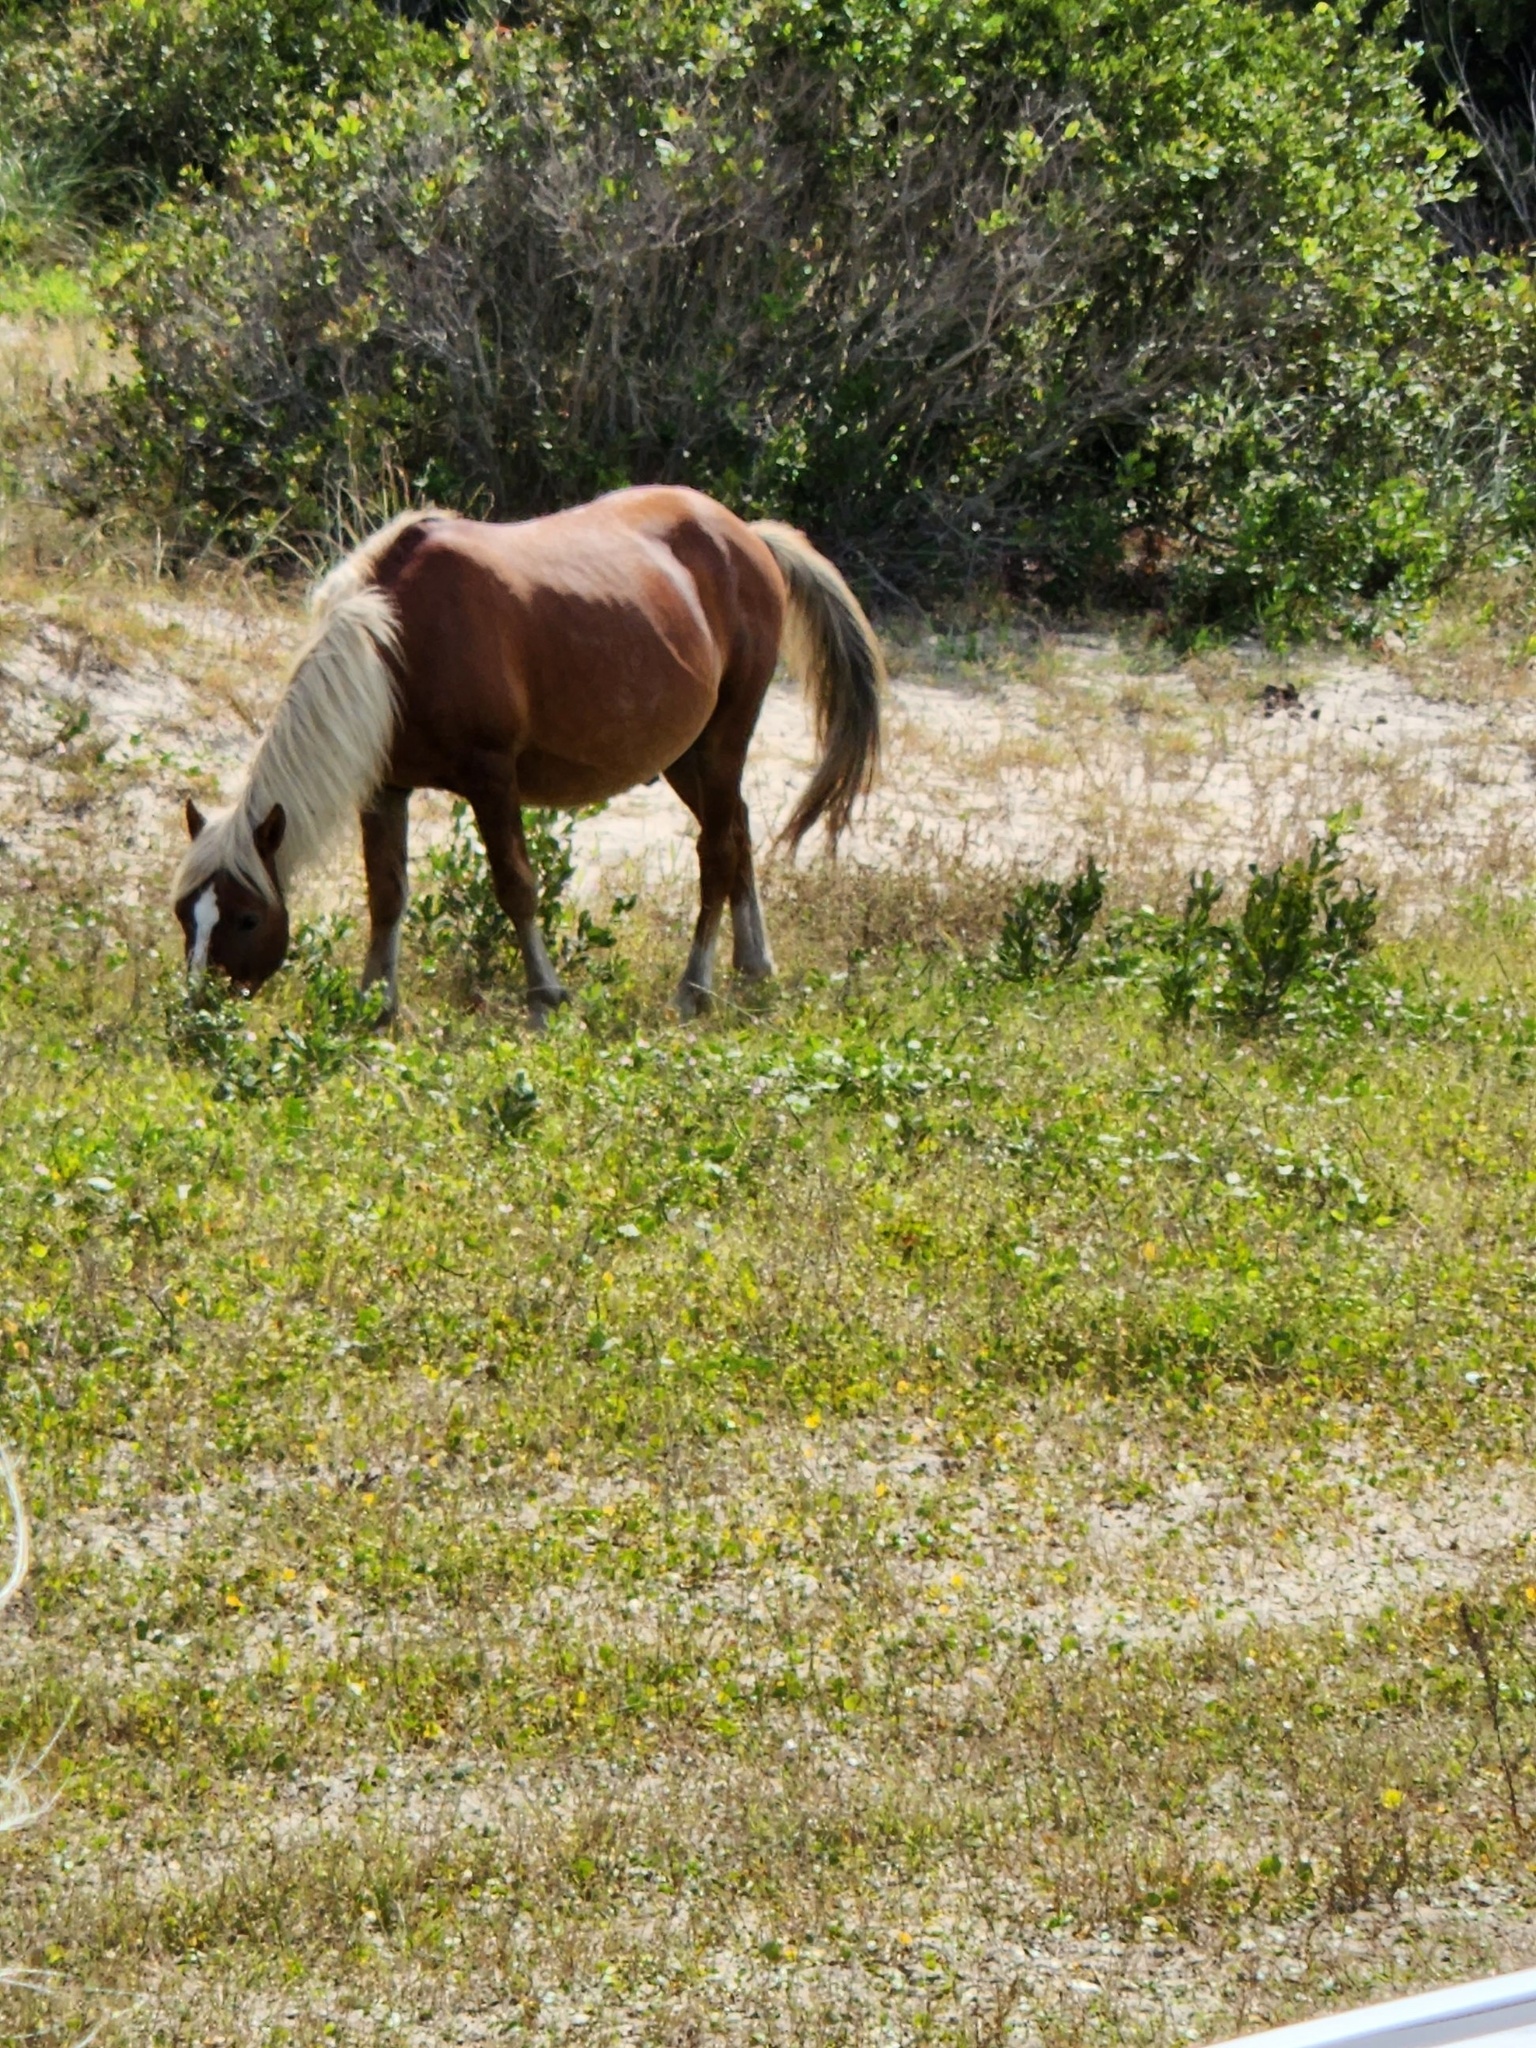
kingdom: Animalia
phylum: Chordata
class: Mammalia
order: Perissodactyla
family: Equidae
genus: Equus
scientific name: Equus caballus
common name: Horse
